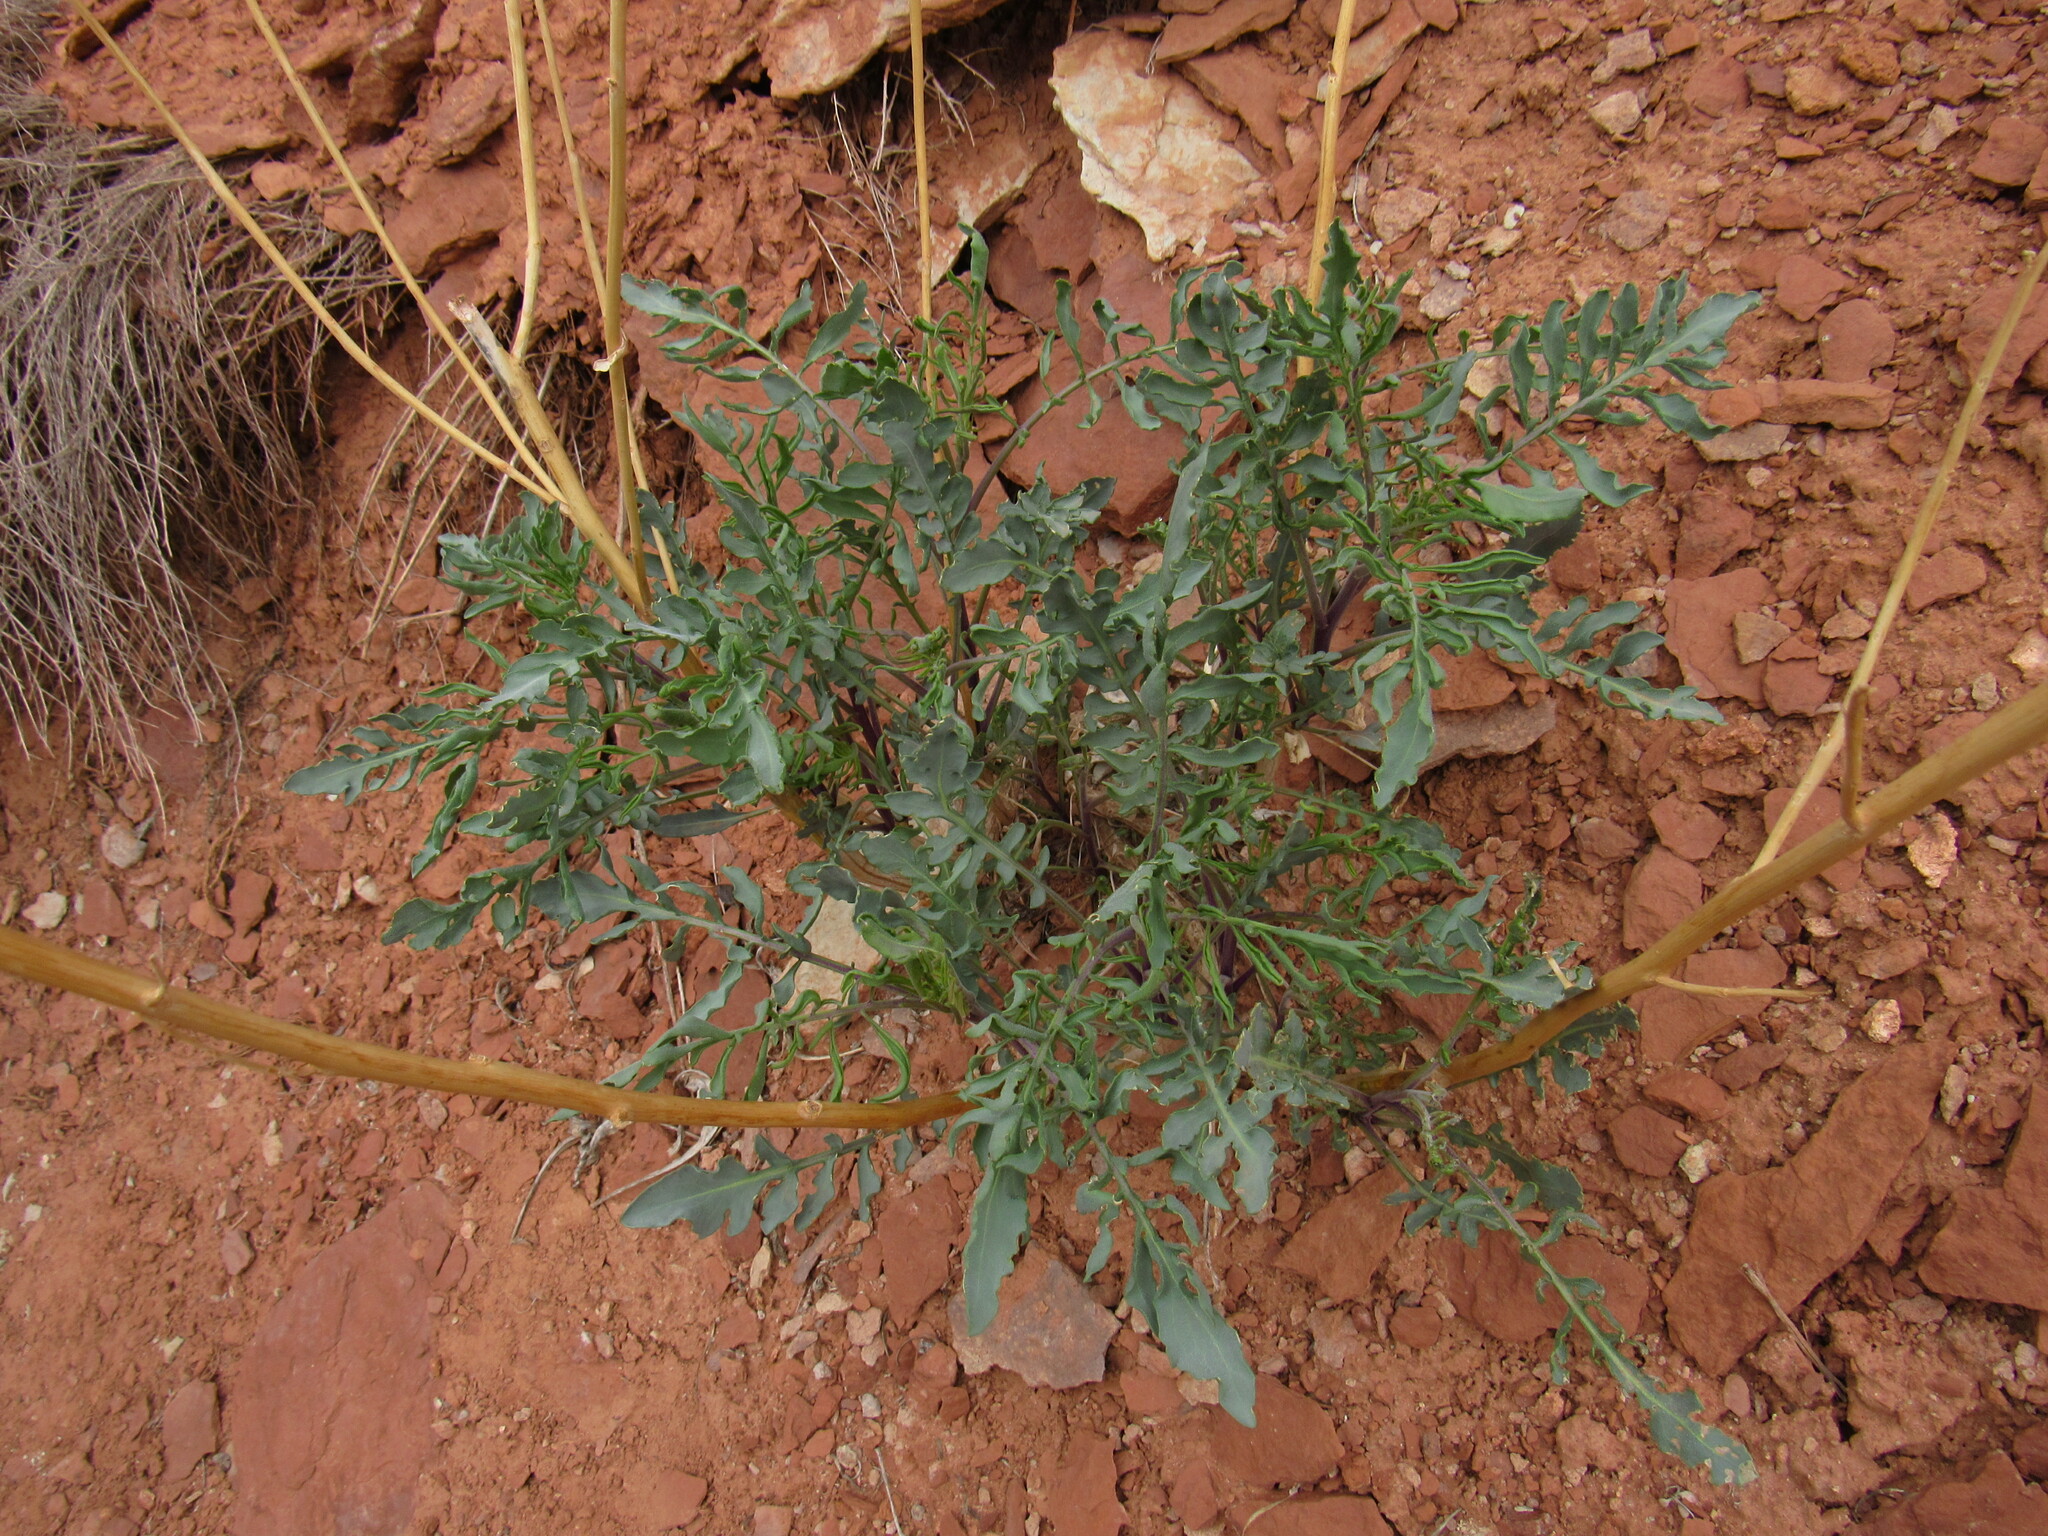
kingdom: Plantae
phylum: Tracheophyta
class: Magnoliopsida
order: Brassicales
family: Brassicaceae
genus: Stanleya
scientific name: Stanleya pinnata
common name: Prince's-plume
